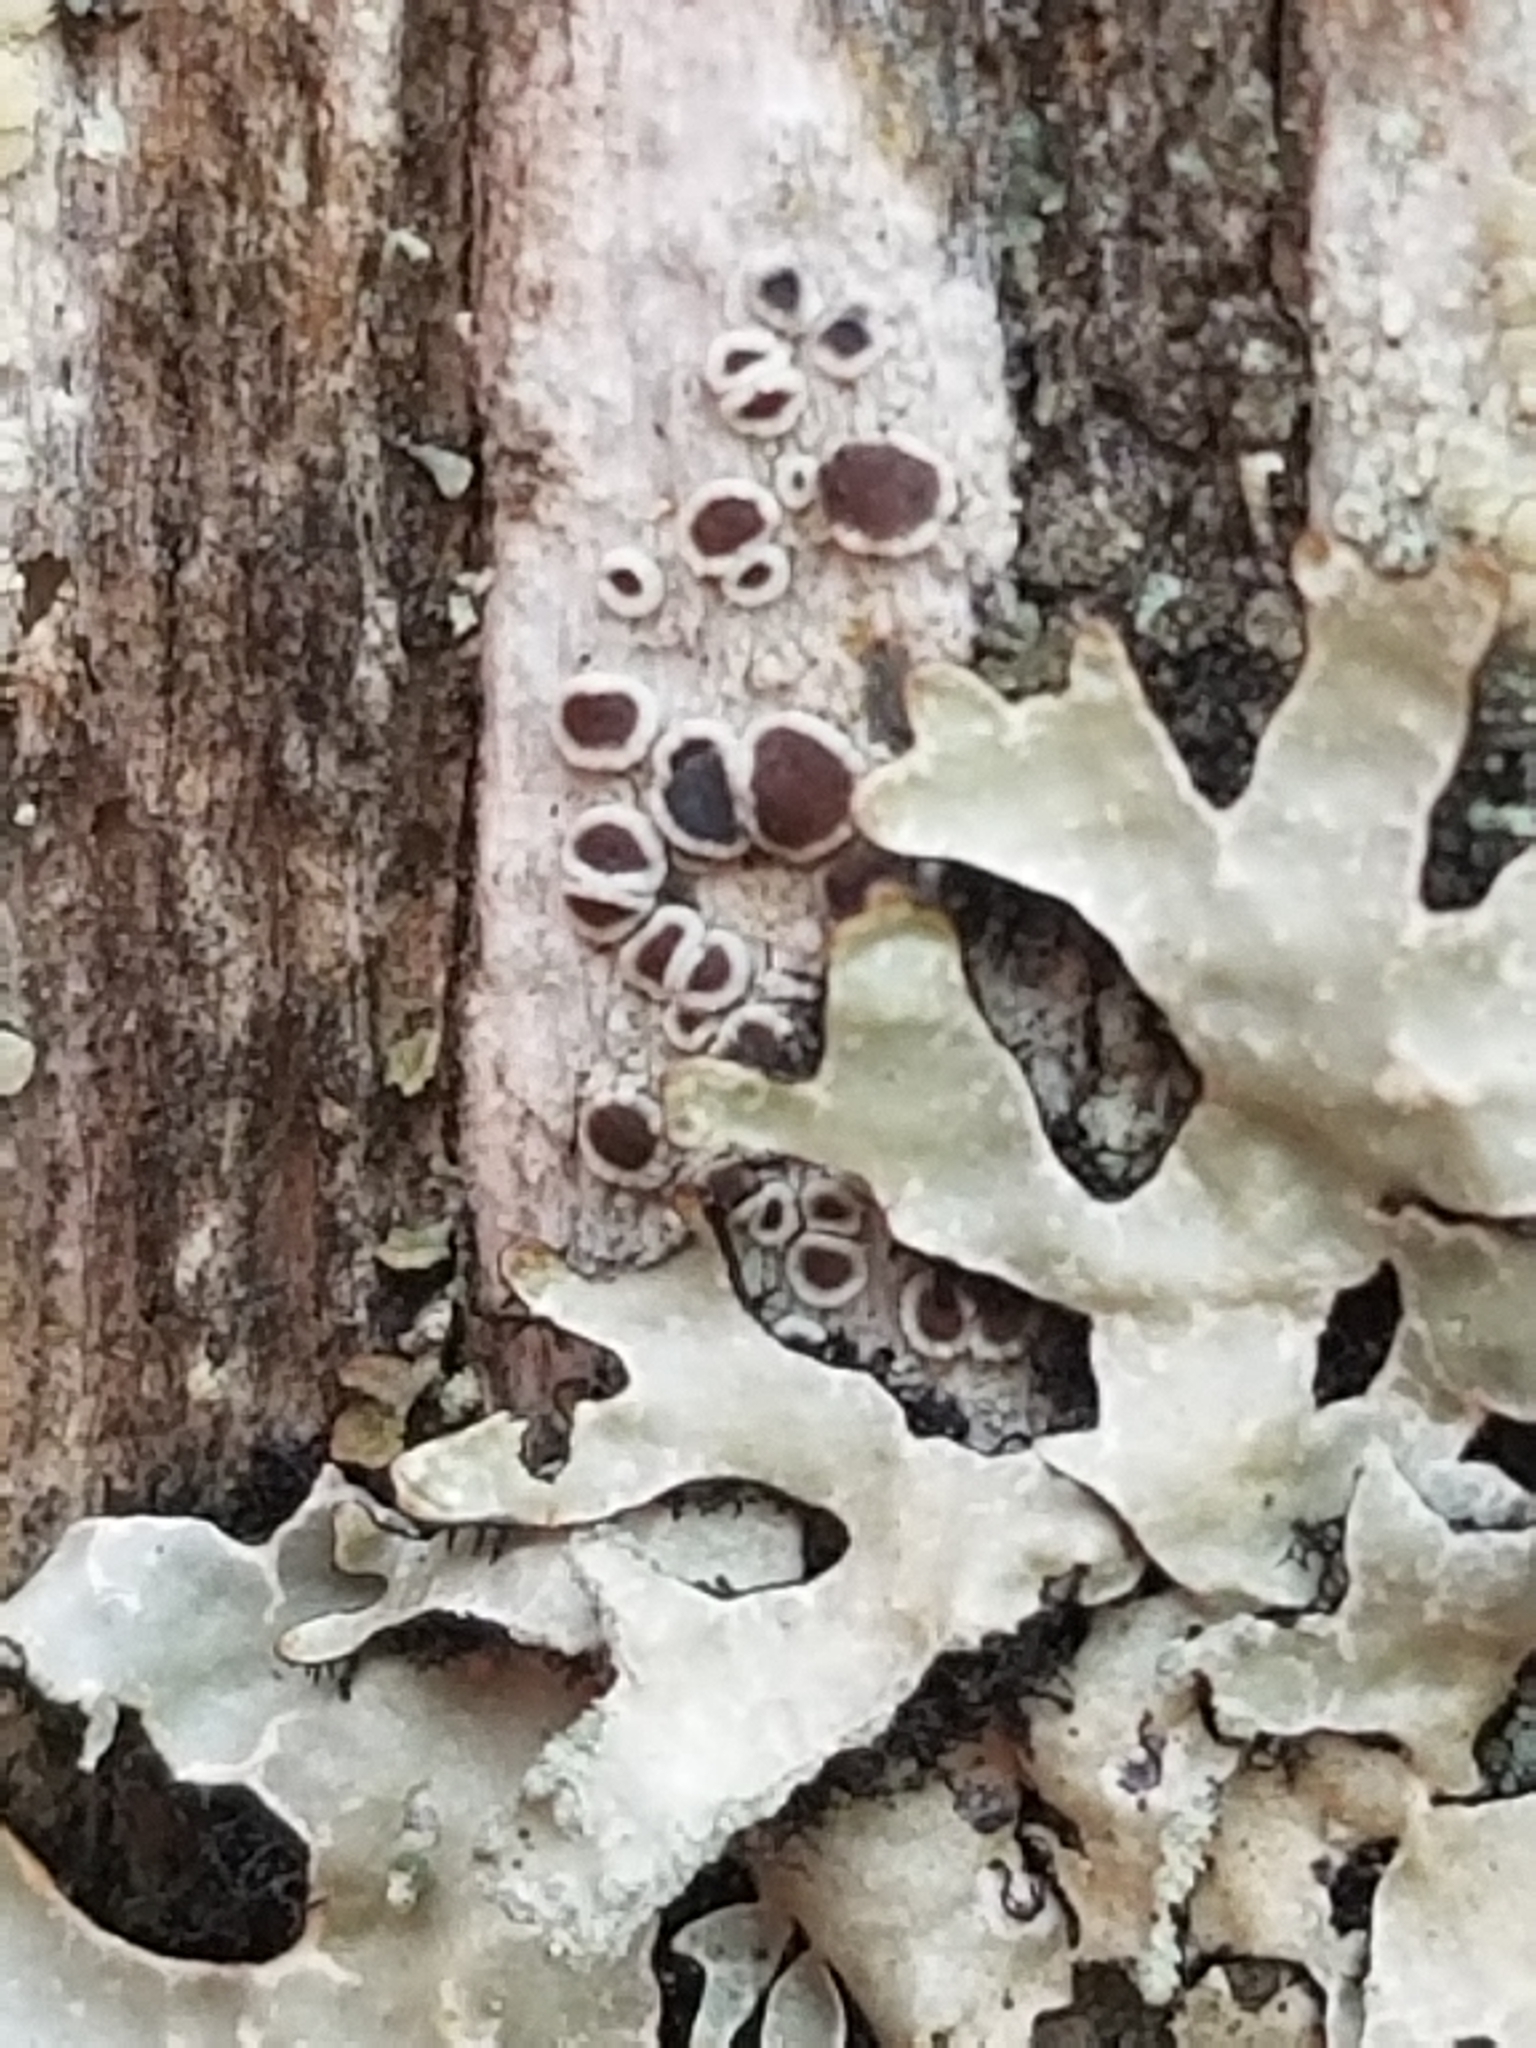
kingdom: Fungi
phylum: Ascomycota
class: Lecanoromycetes
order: Lecanorales
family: Parmeliaceae
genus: Parmelia
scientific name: Parmelia sulcata
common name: Netted shield lichen
